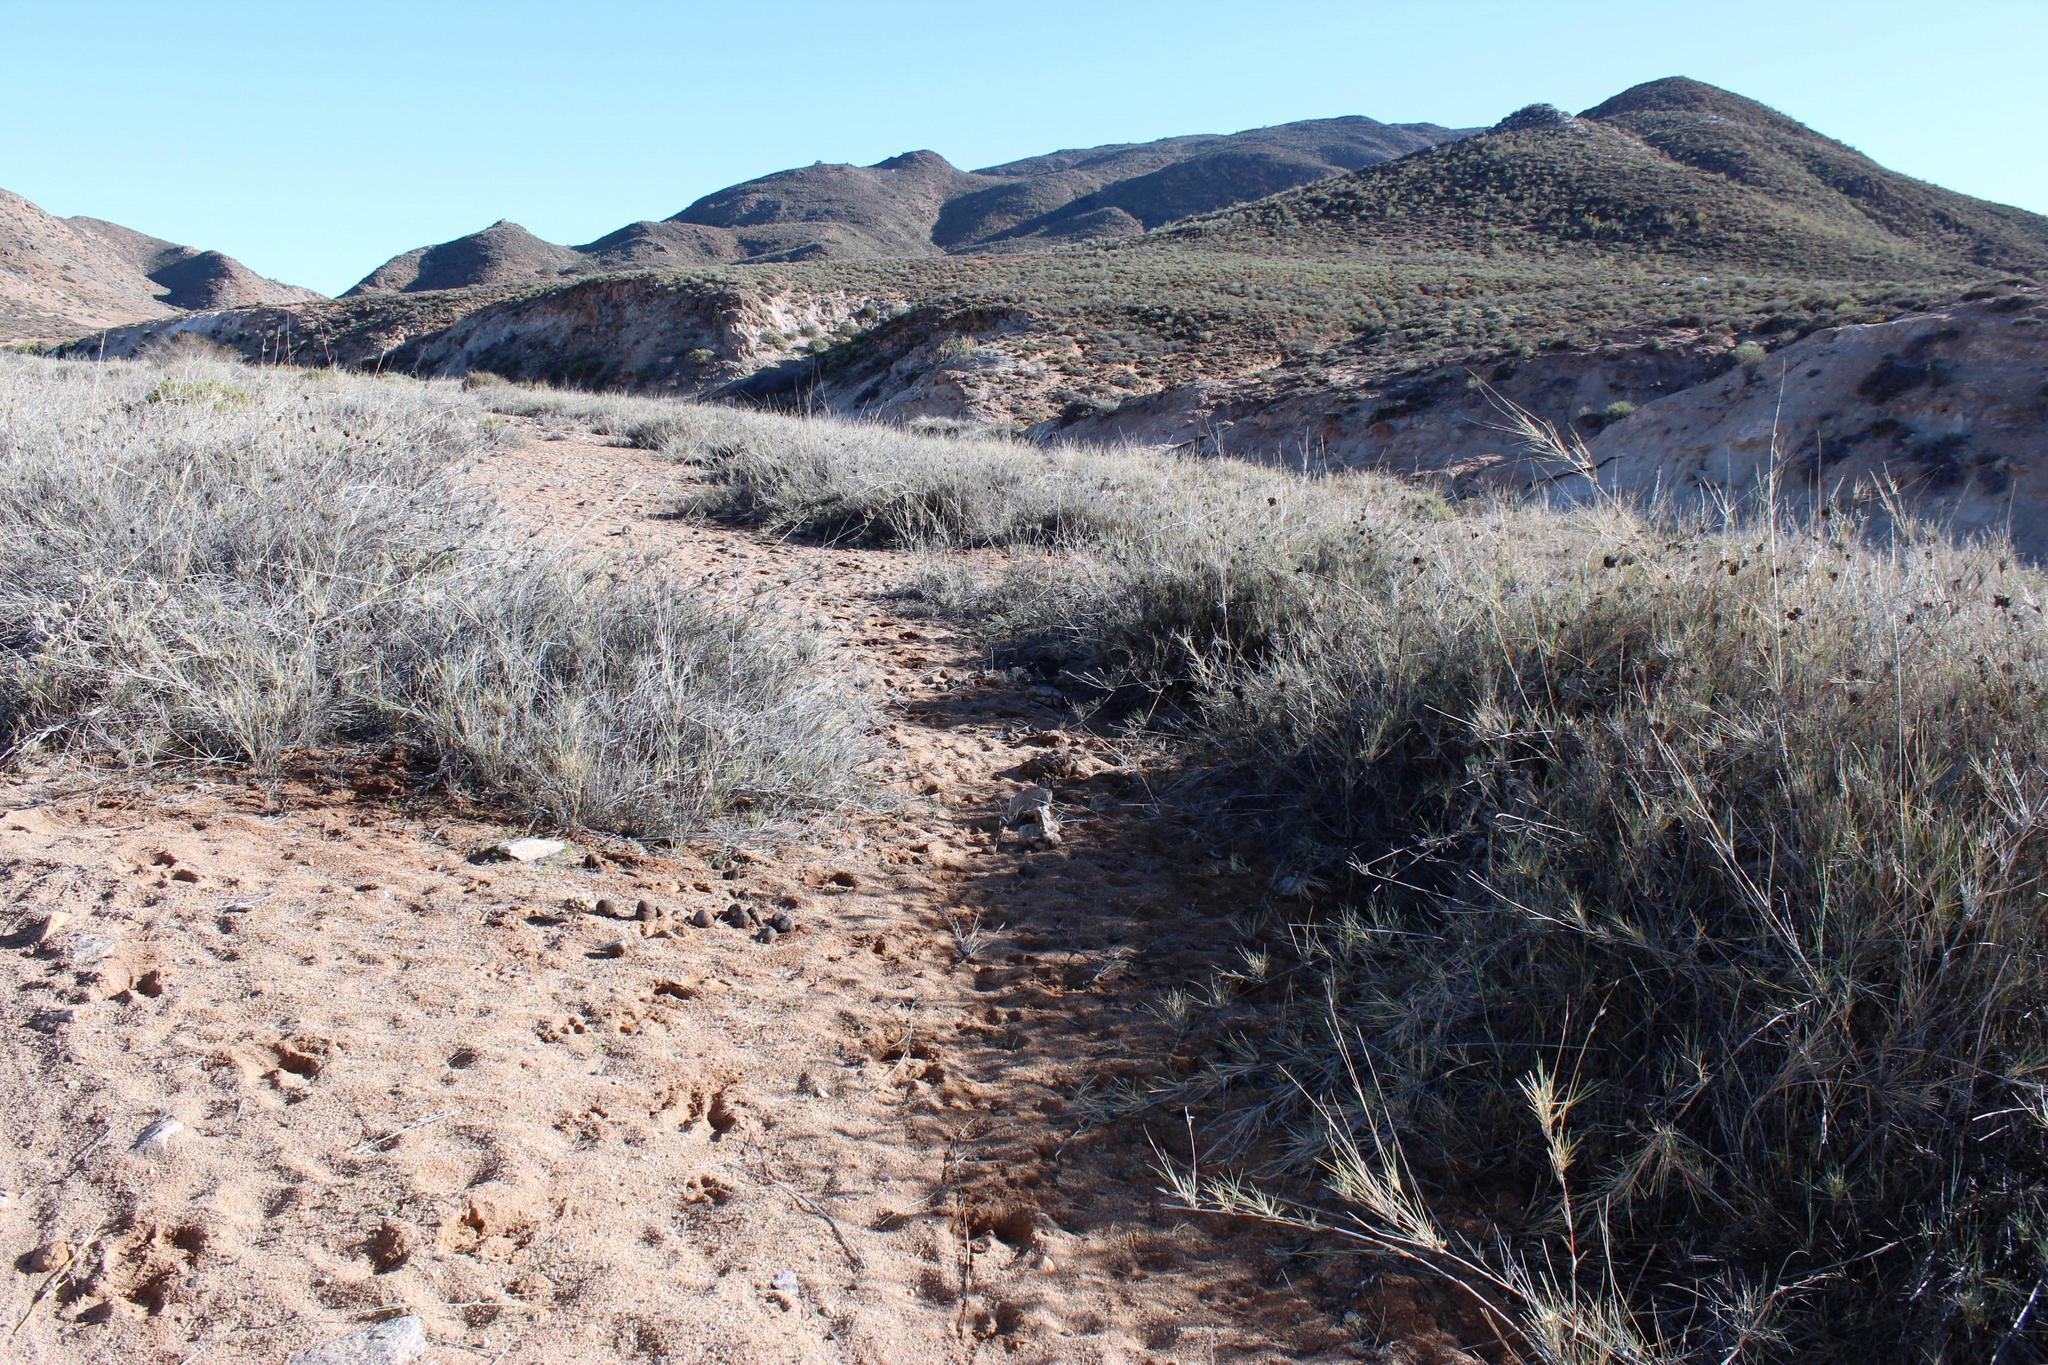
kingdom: Plantae
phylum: Tracheophyta
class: Liliopsida
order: Poales
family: Poaceae
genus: Stipagrostis
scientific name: Stipagrostis namaquensis
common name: River bushman grass
